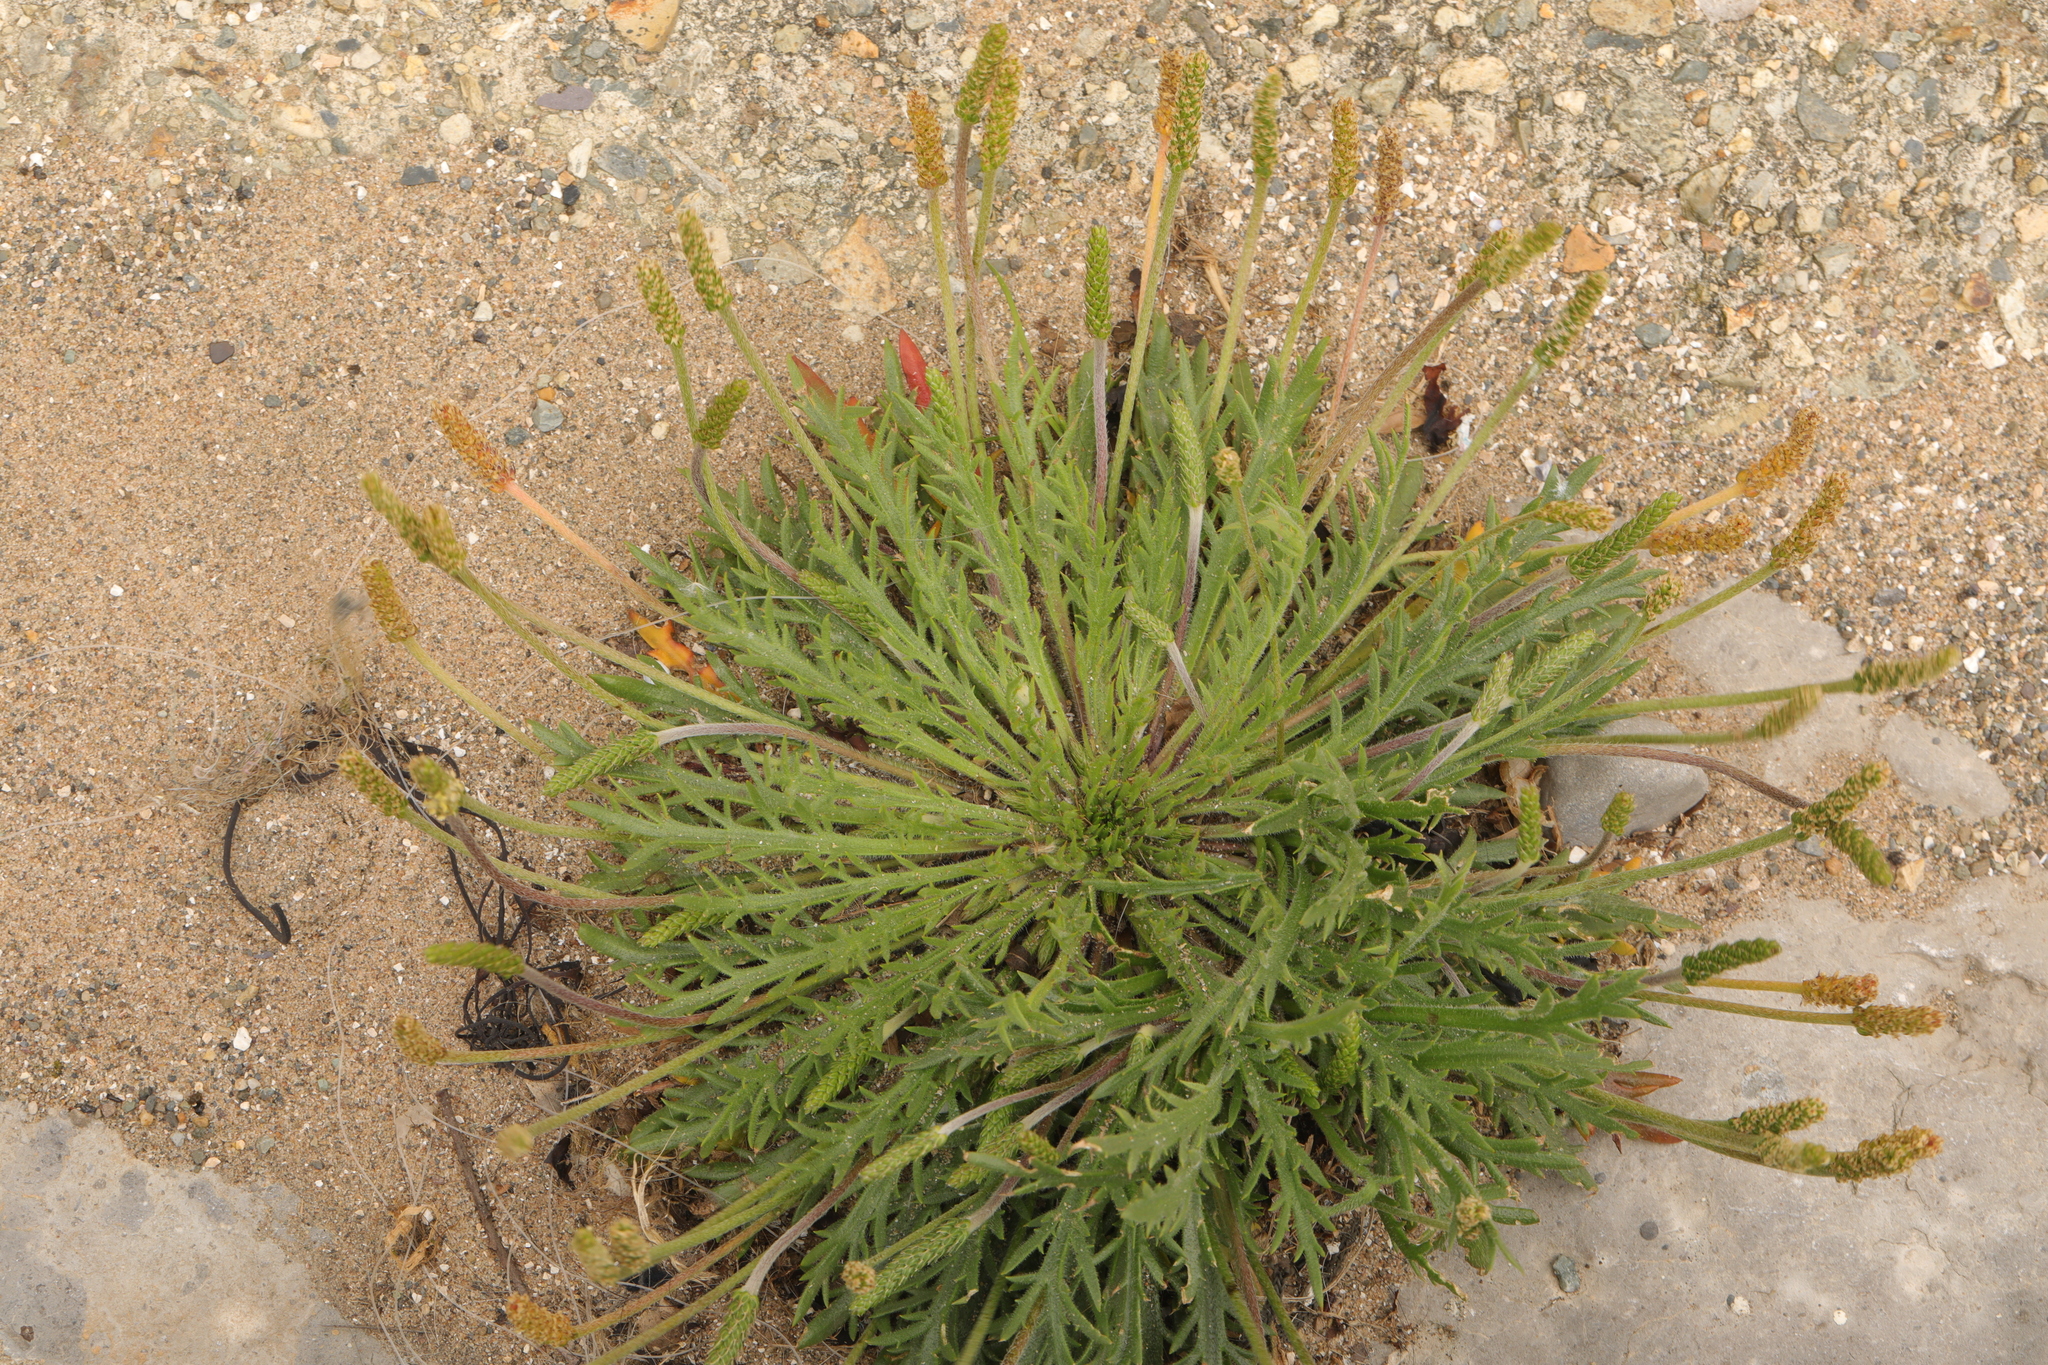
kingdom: Plantae
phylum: Tracheophyta
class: Magnoliopsida
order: Lamiales
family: Plantaginaceae
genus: Plantago
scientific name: Plantago coronopus
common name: Buck's-horn plantain
